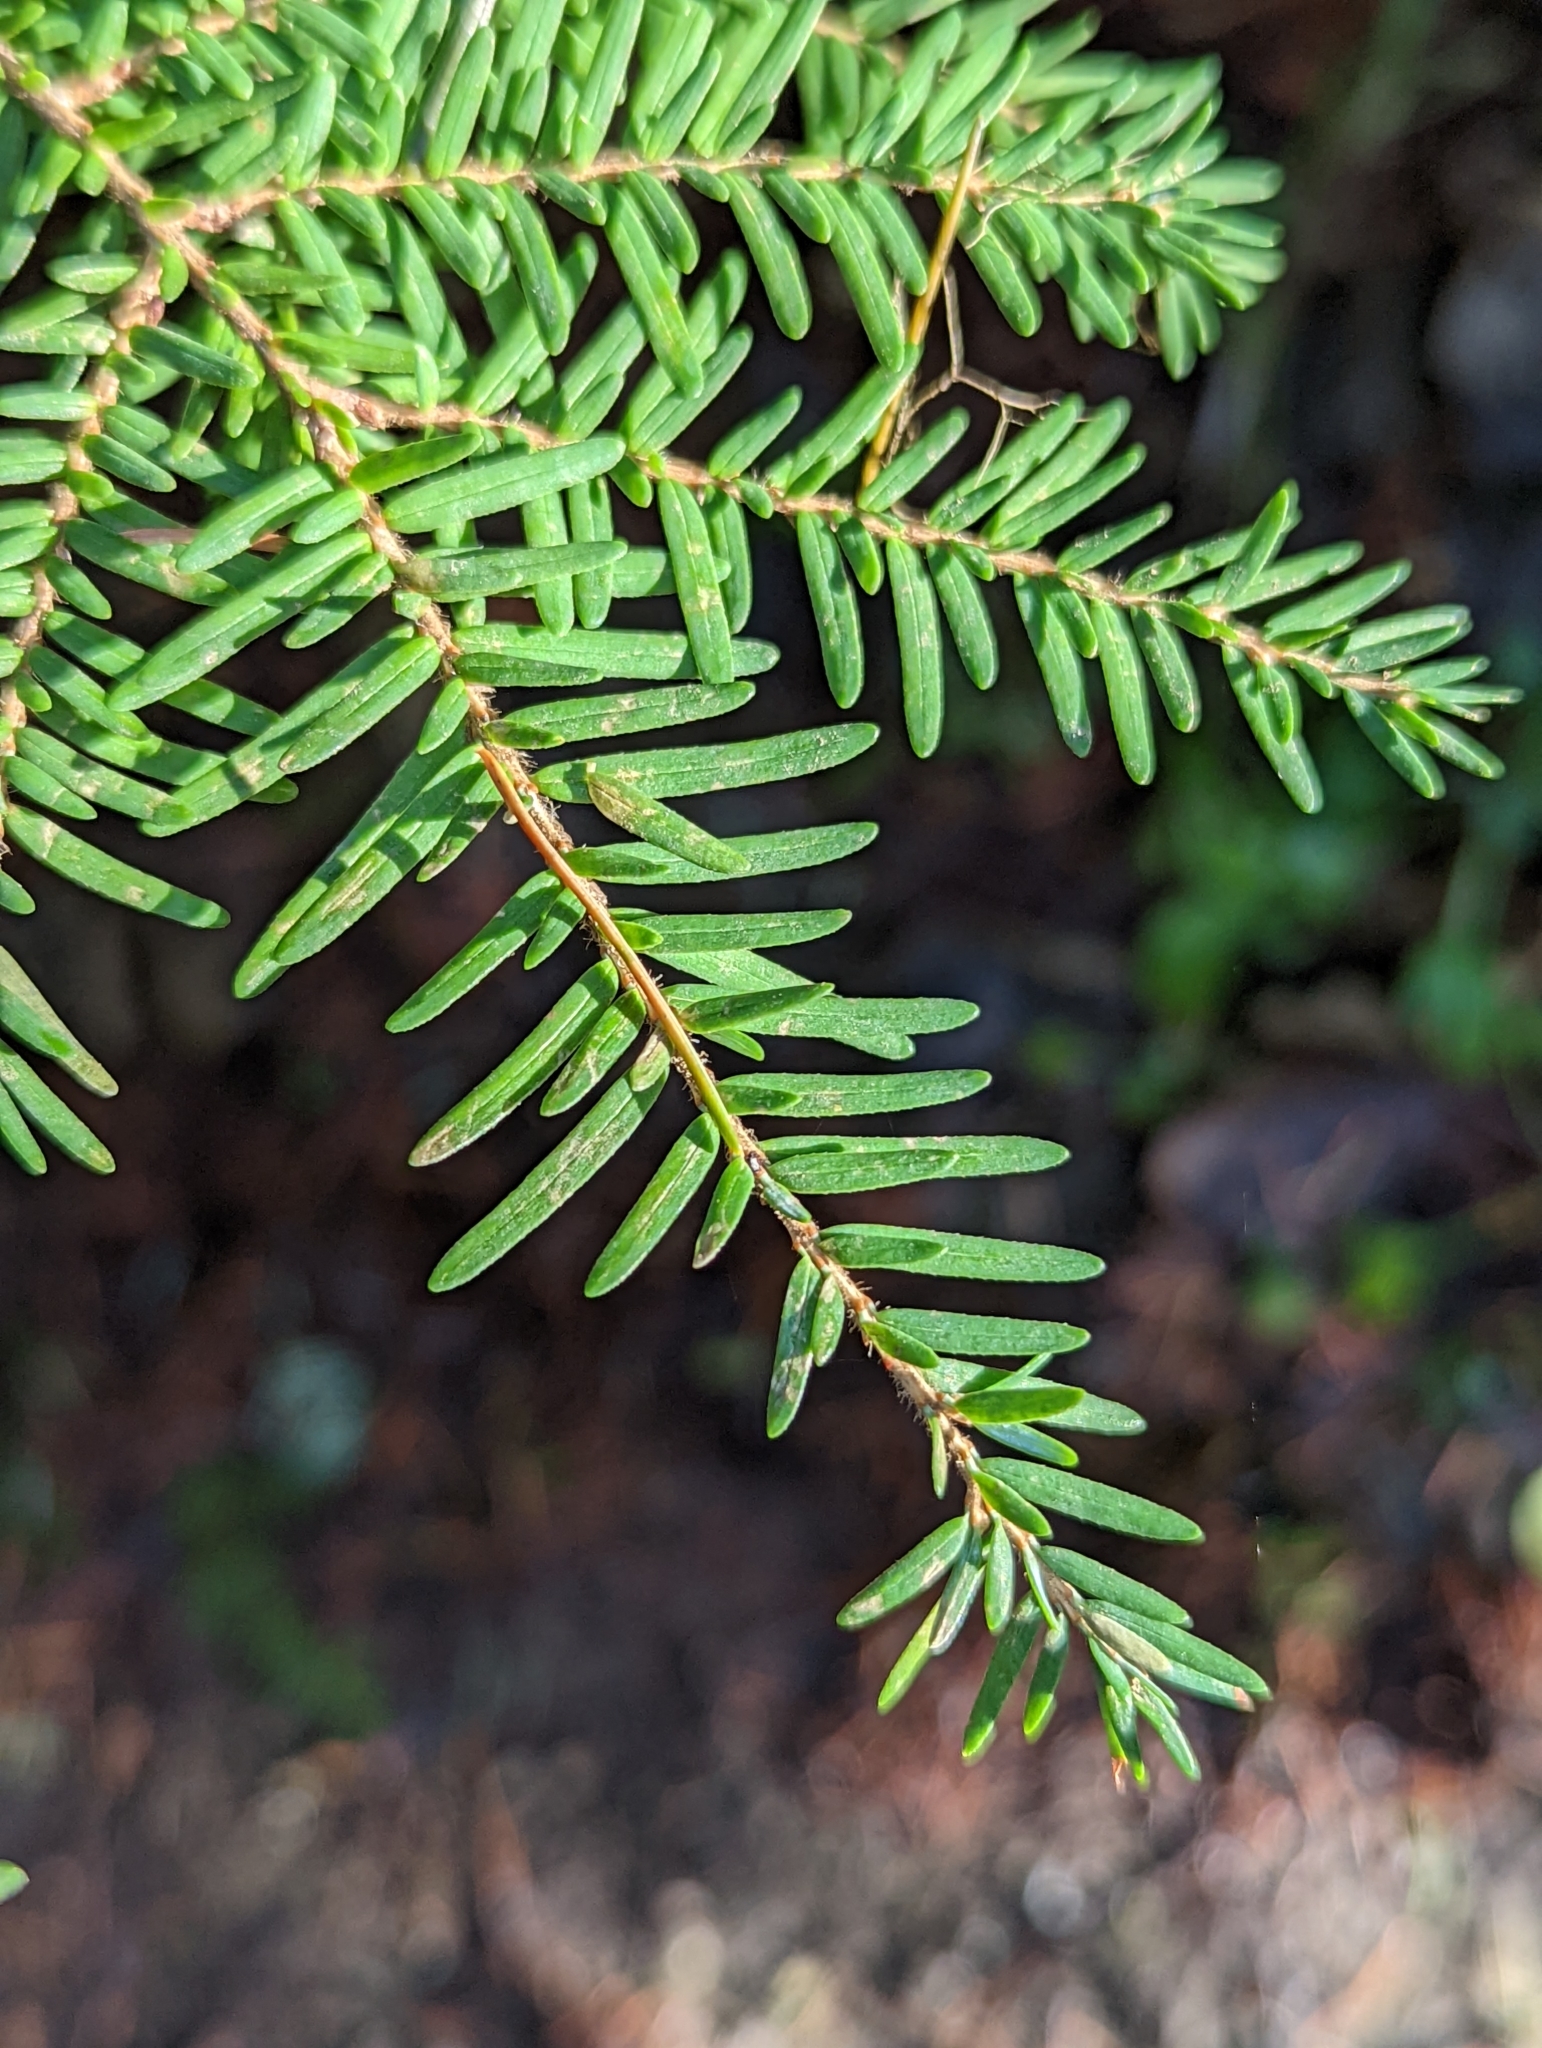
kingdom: Plantae
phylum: Tracheophyta
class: Pinopsida
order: Pinales
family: Pinaceae
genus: Tsuga
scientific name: Tsuga heterophylla
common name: Western hemlock
